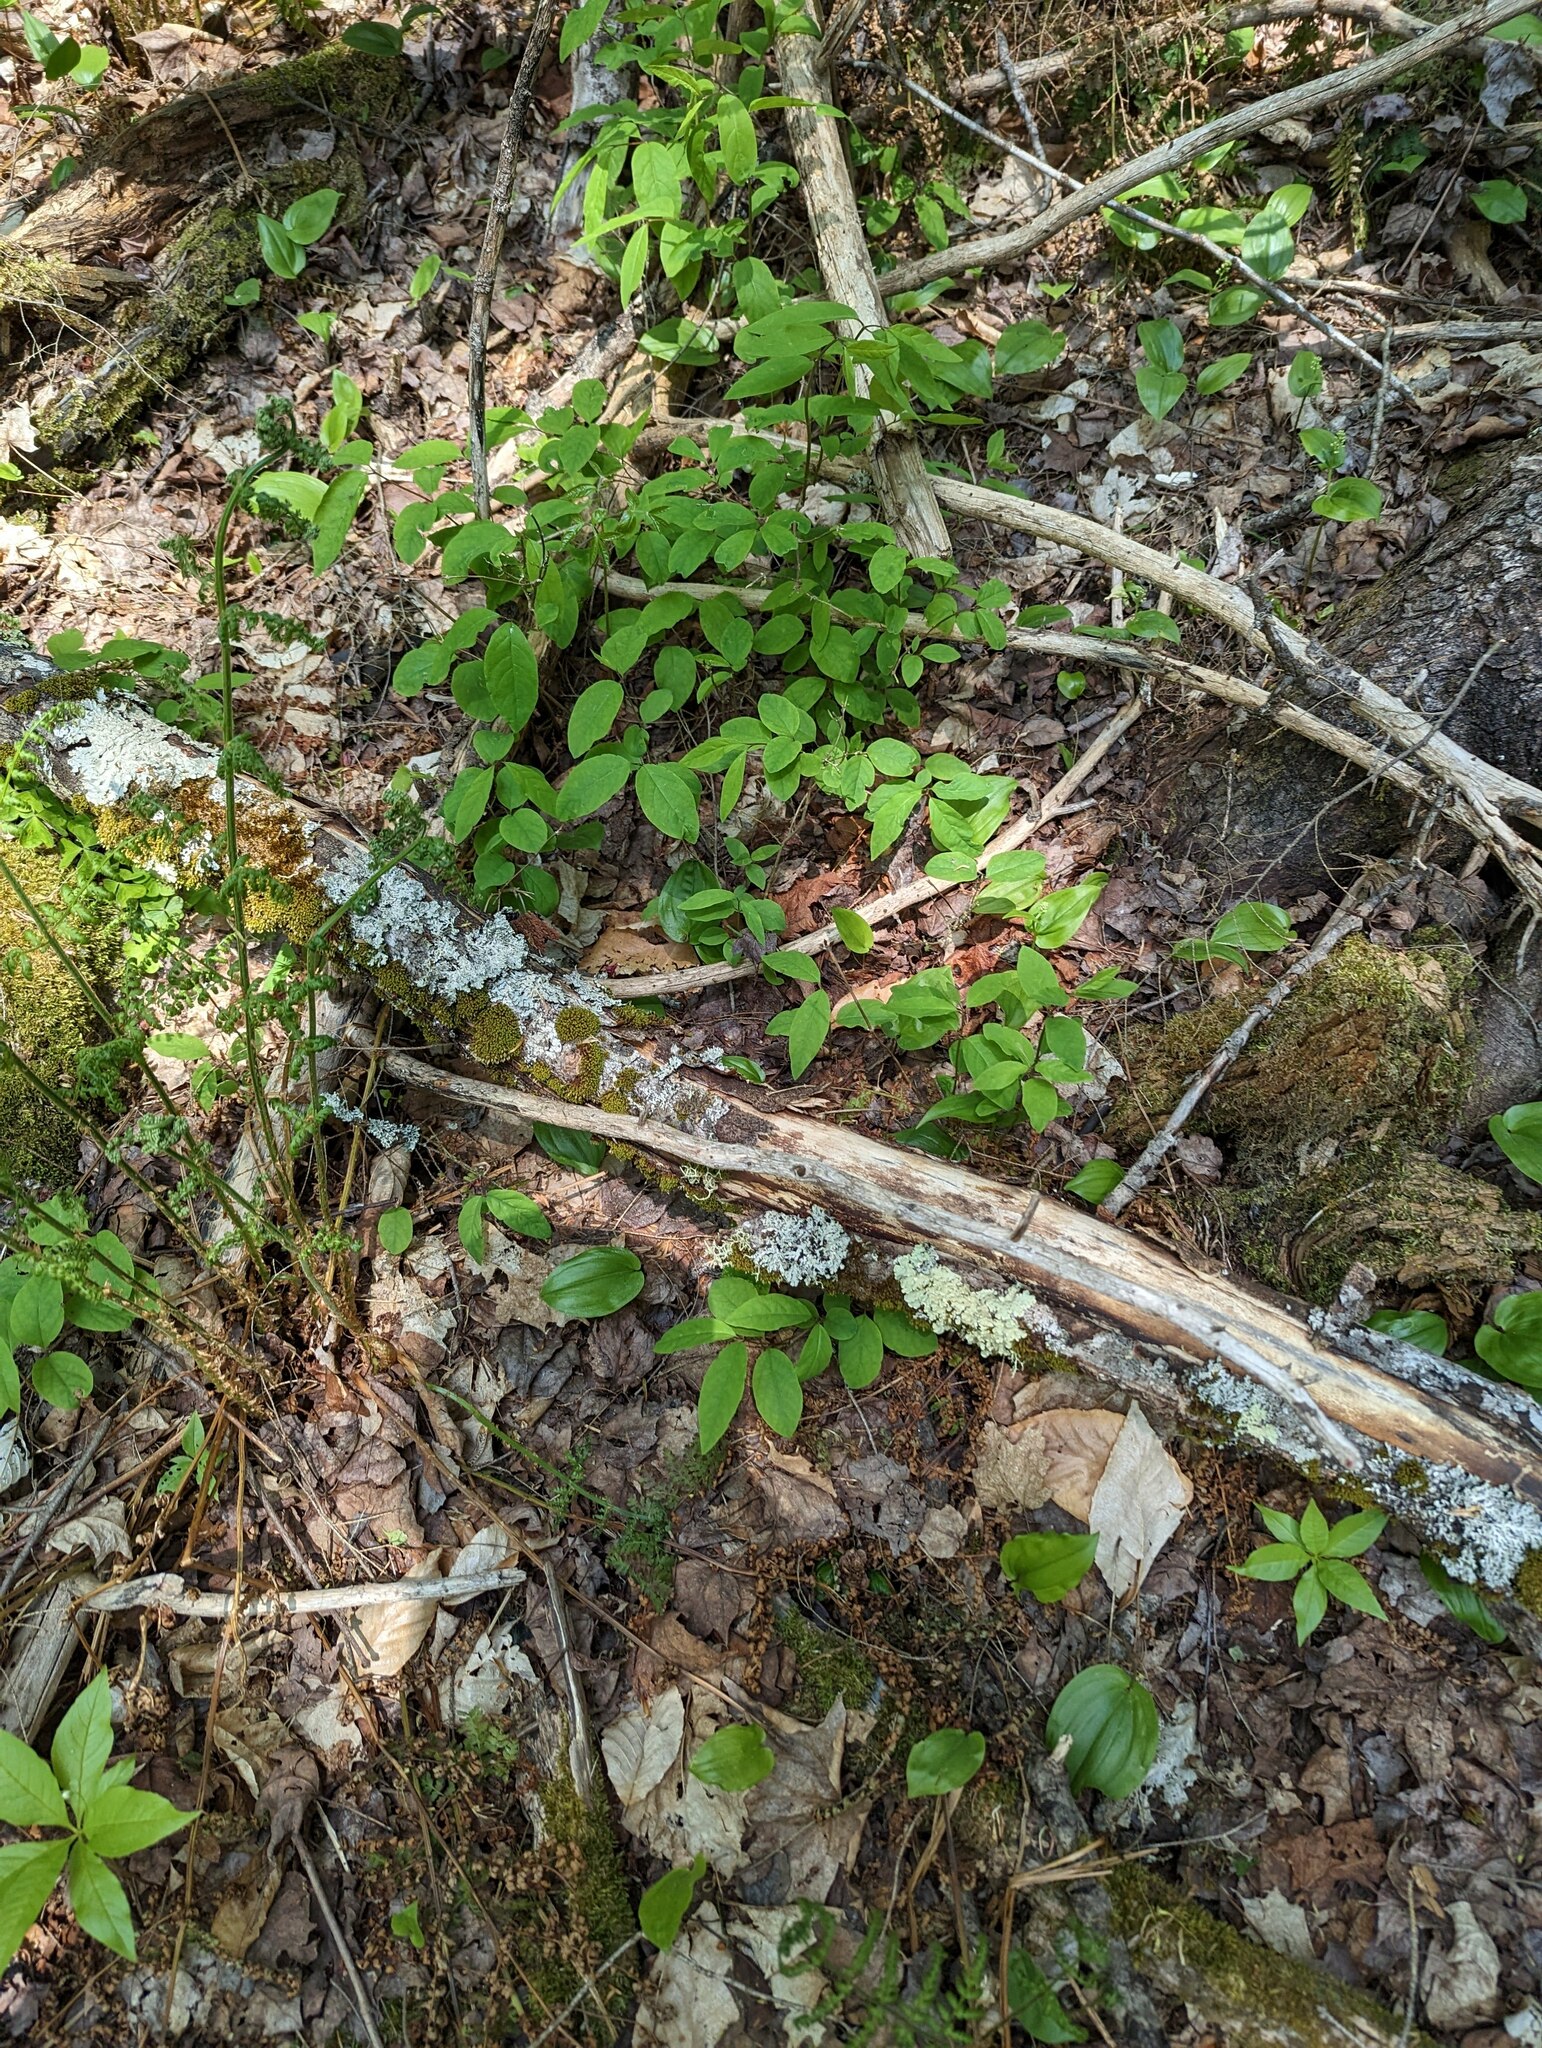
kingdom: Plantae
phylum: Tracheophyta
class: Magnoliopsida
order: Dipsacales
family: Caprifoliaceae
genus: Lonicera
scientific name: Lonicera canadensis
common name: American fly-honeysuckle
